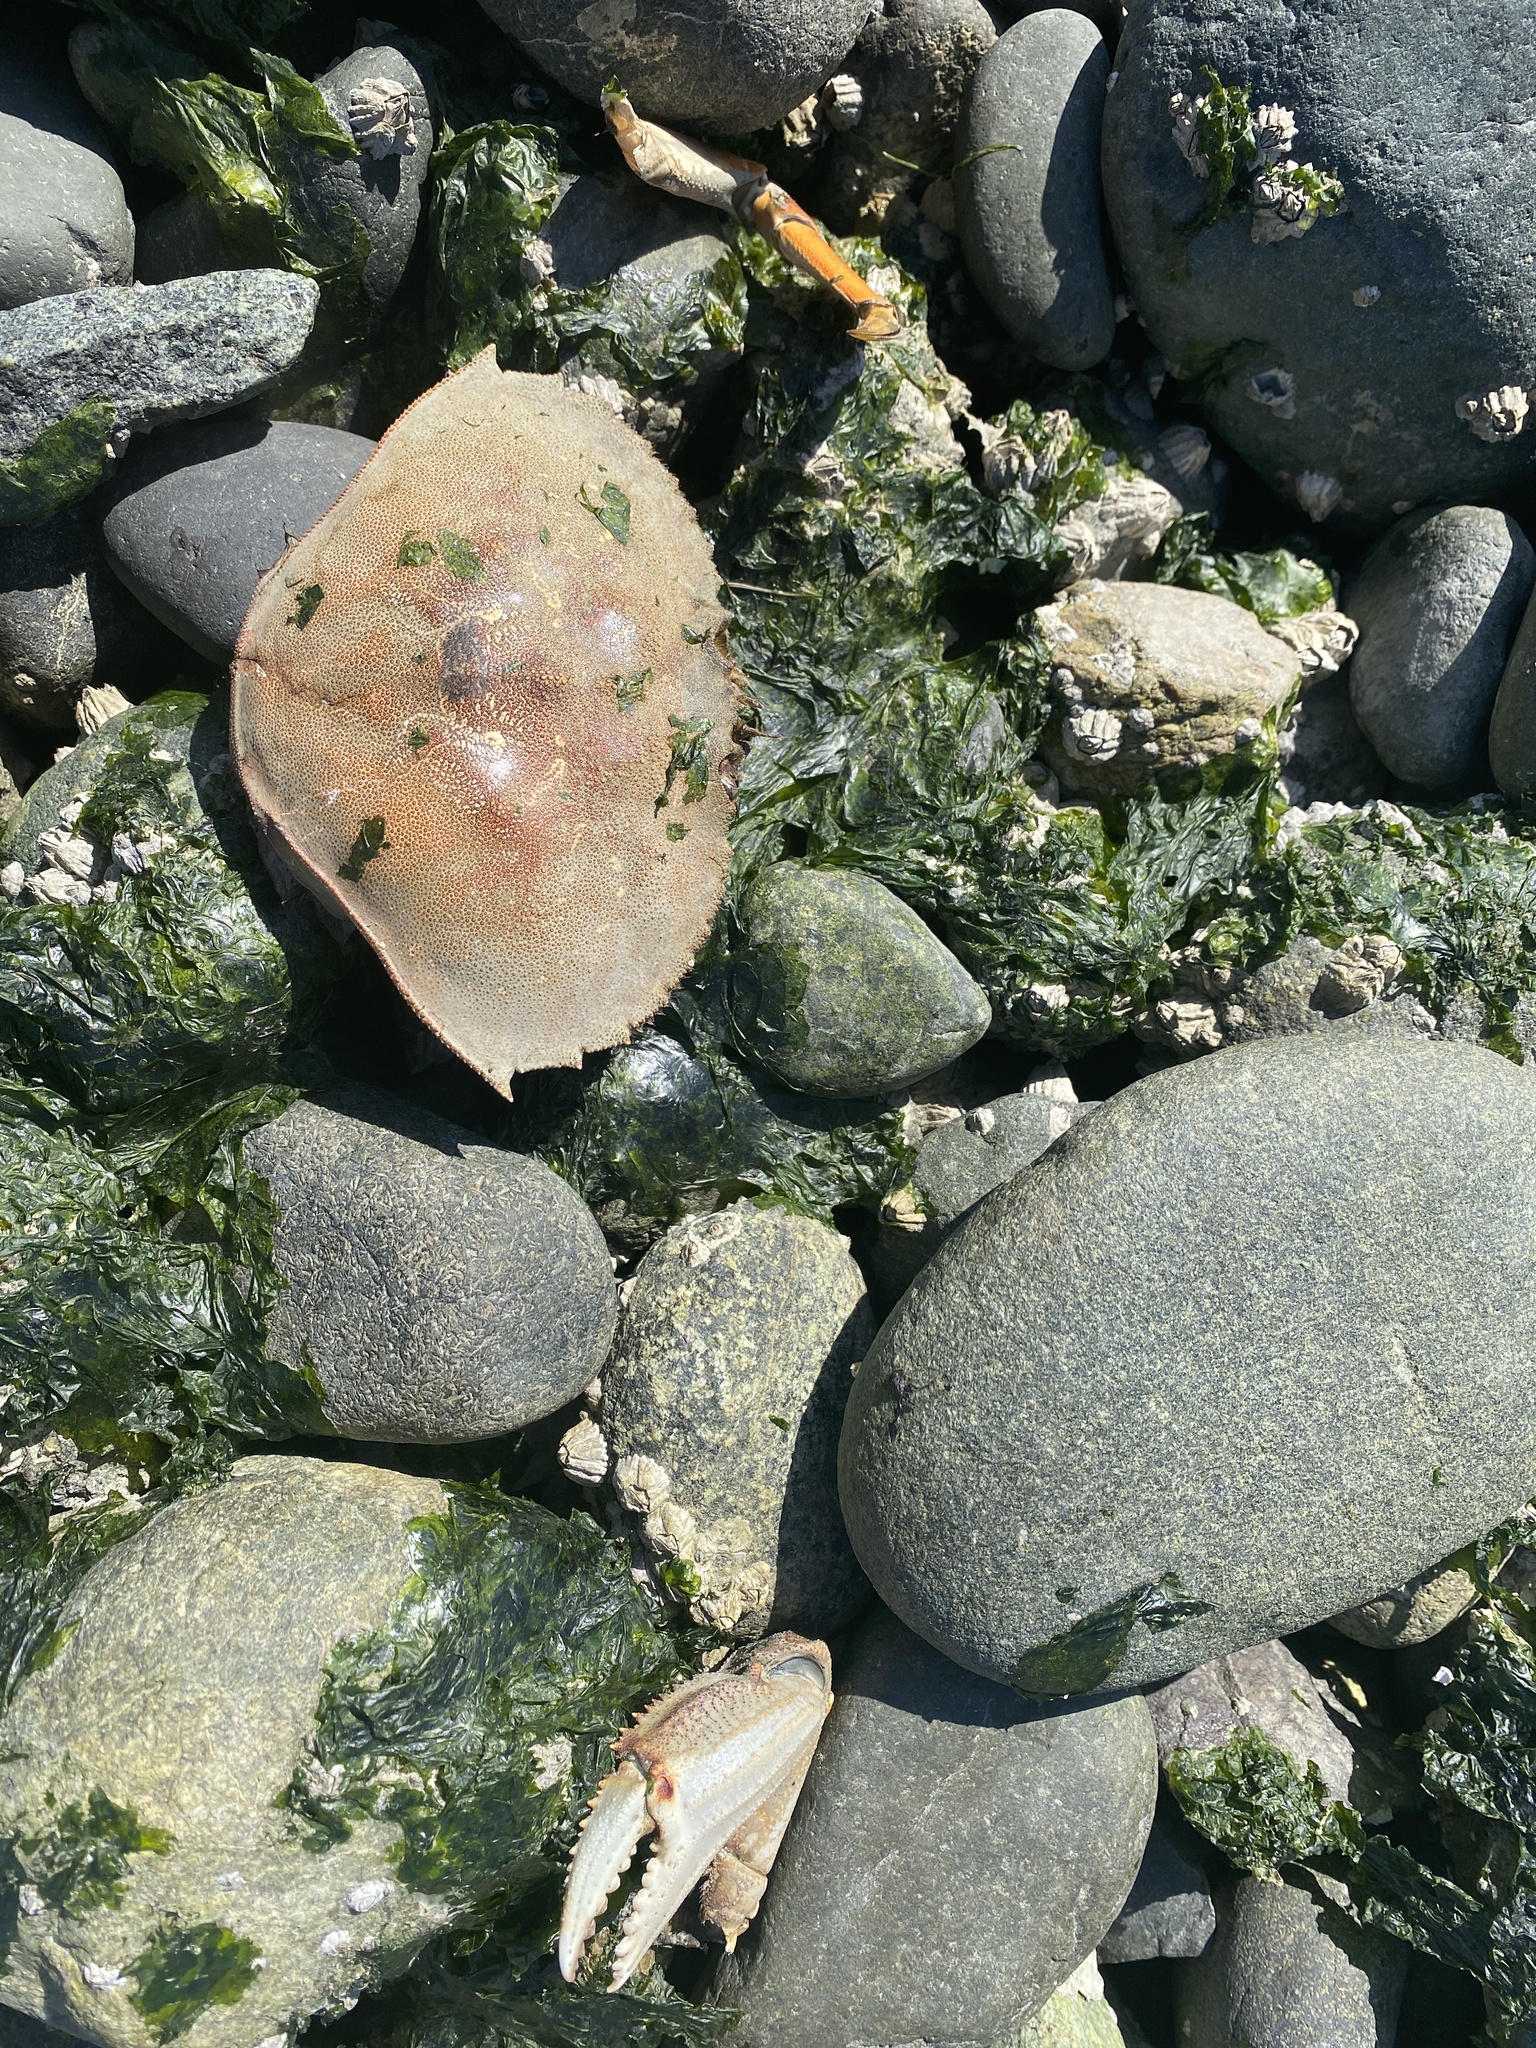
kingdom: Animalia
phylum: Arthropoda
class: Malacostraca
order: Decapoda
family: Cancridae
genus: Metacarcinus
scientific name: Metacarcinus magister
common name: Californian crab
